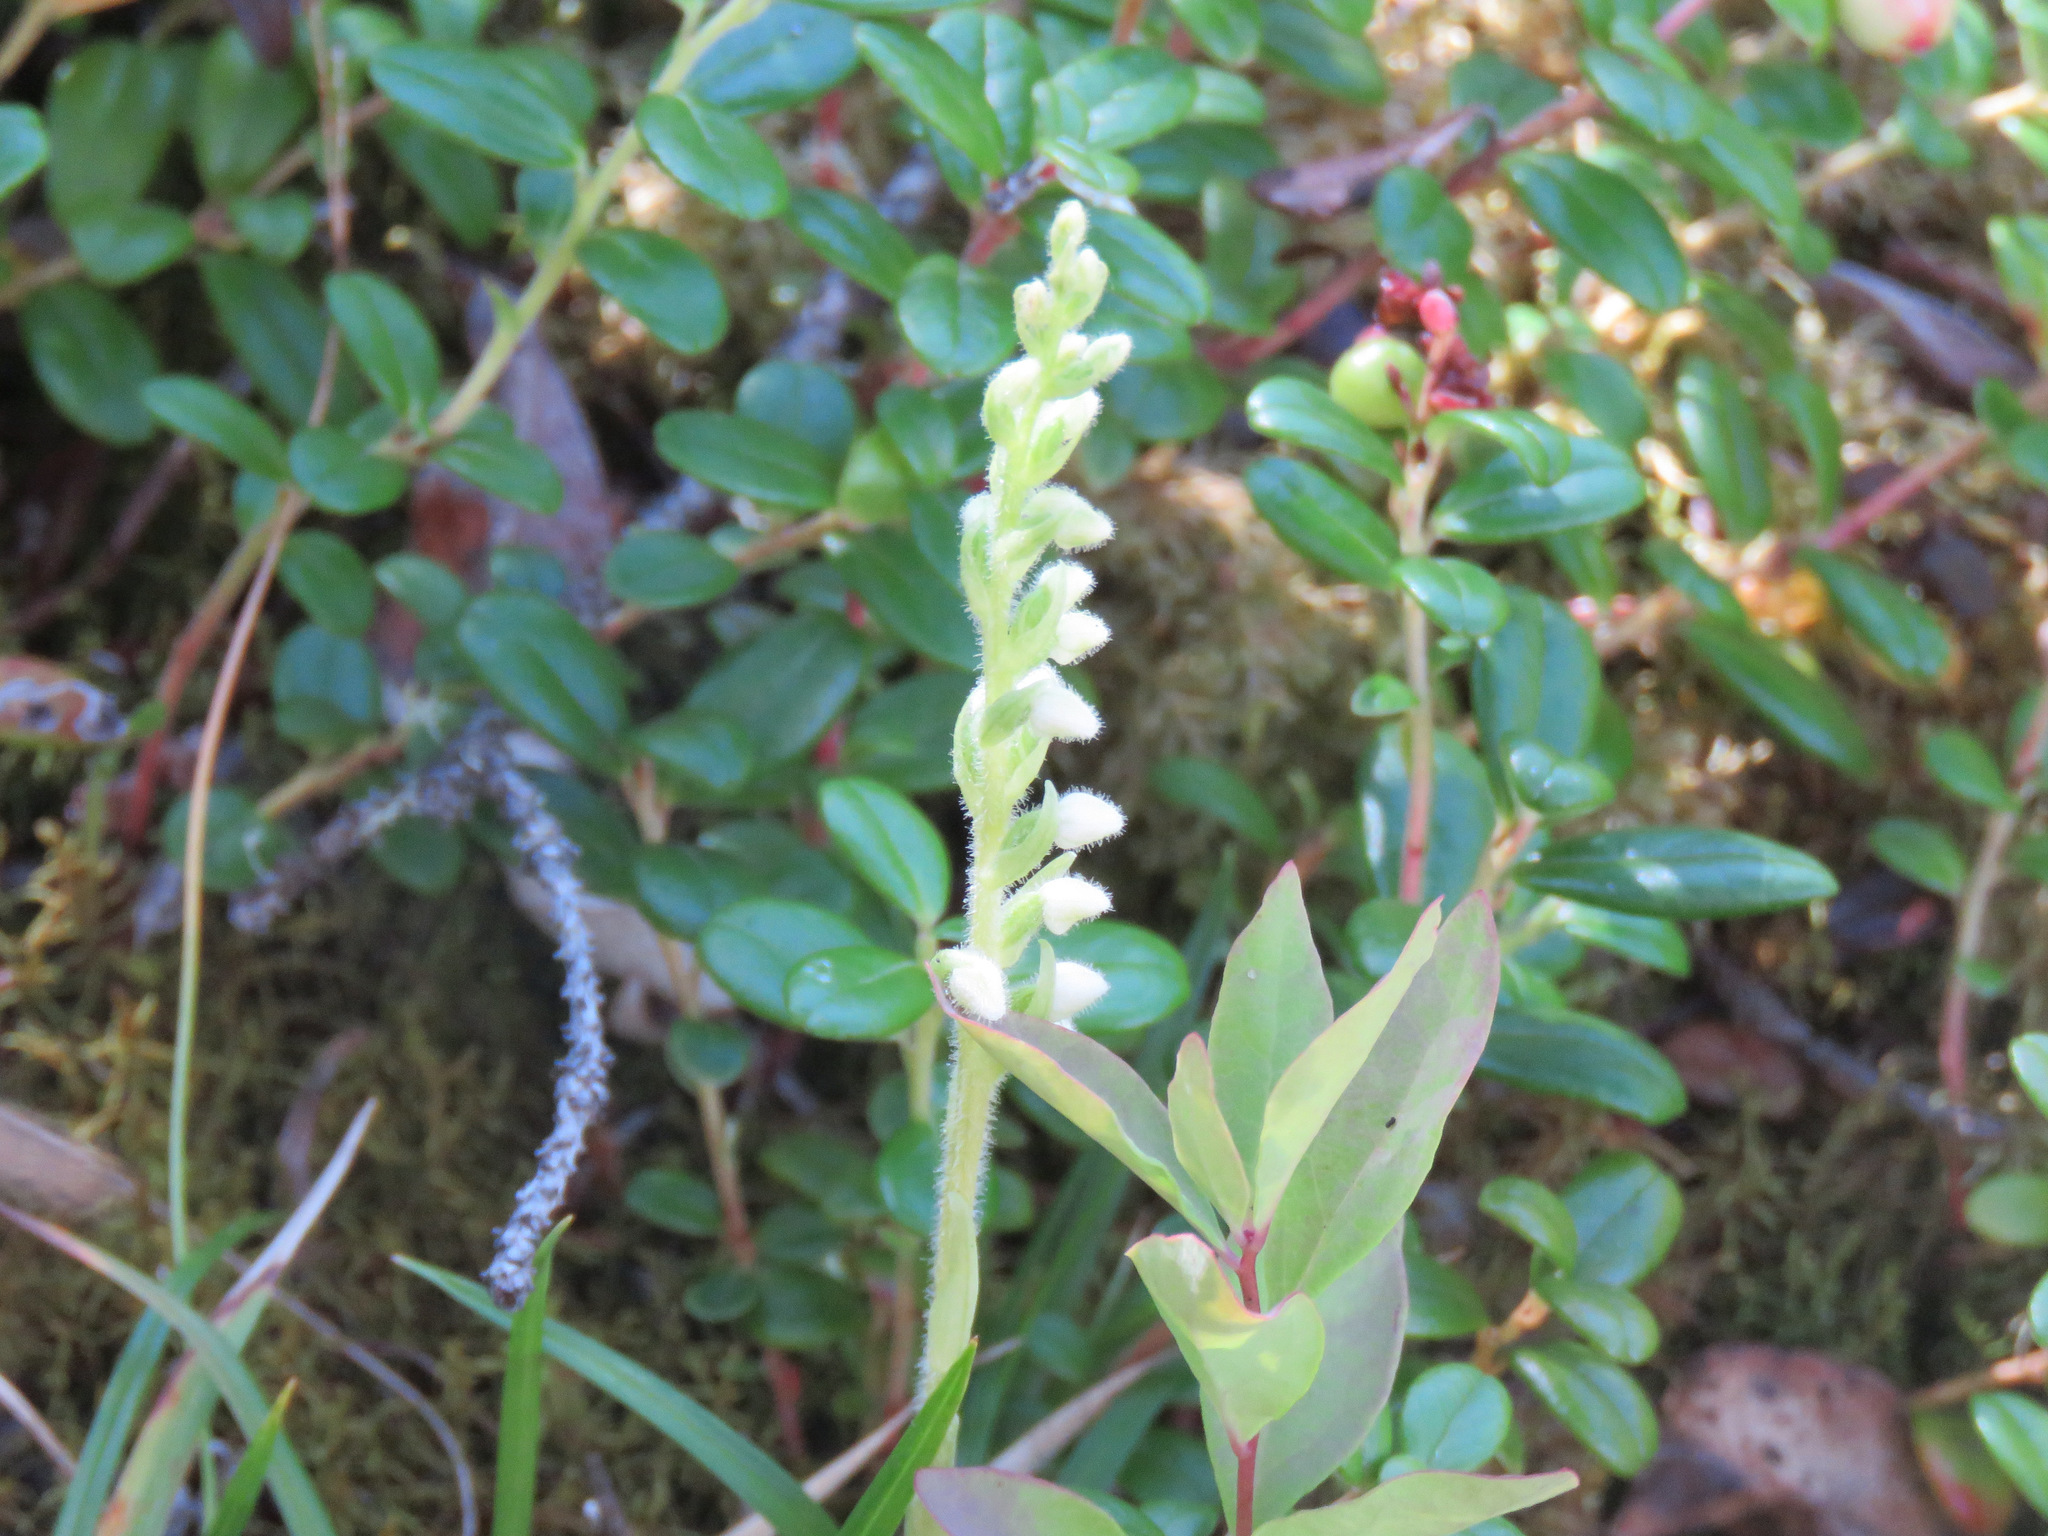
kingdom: Plantae
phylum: Tracheophyta
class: Liliopsida
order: Asparagales
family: Orchidaceae
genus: Goodyera
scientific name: Goodyera repens
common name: Creeping lady's-tresses
